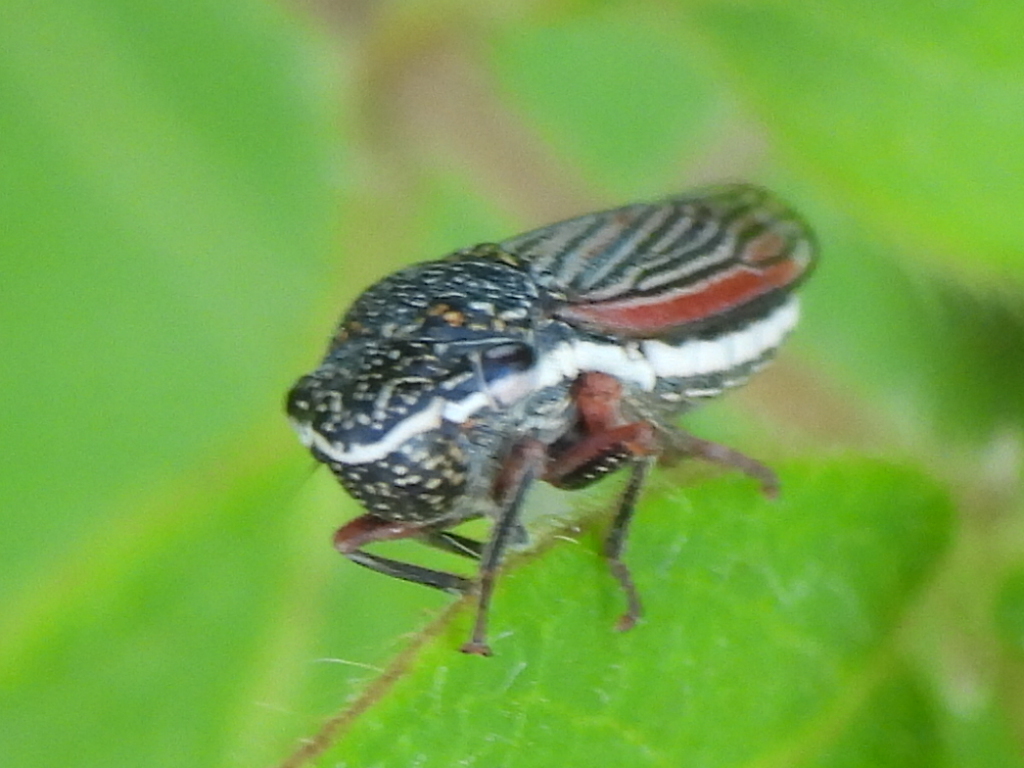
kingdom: Animalia
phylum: Arthropoda
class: Insecta
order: Hemiptera
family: Cicadellidae
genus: Cuerna
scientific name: Cuerna costalis
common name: Lateral-lined sharpshooter
